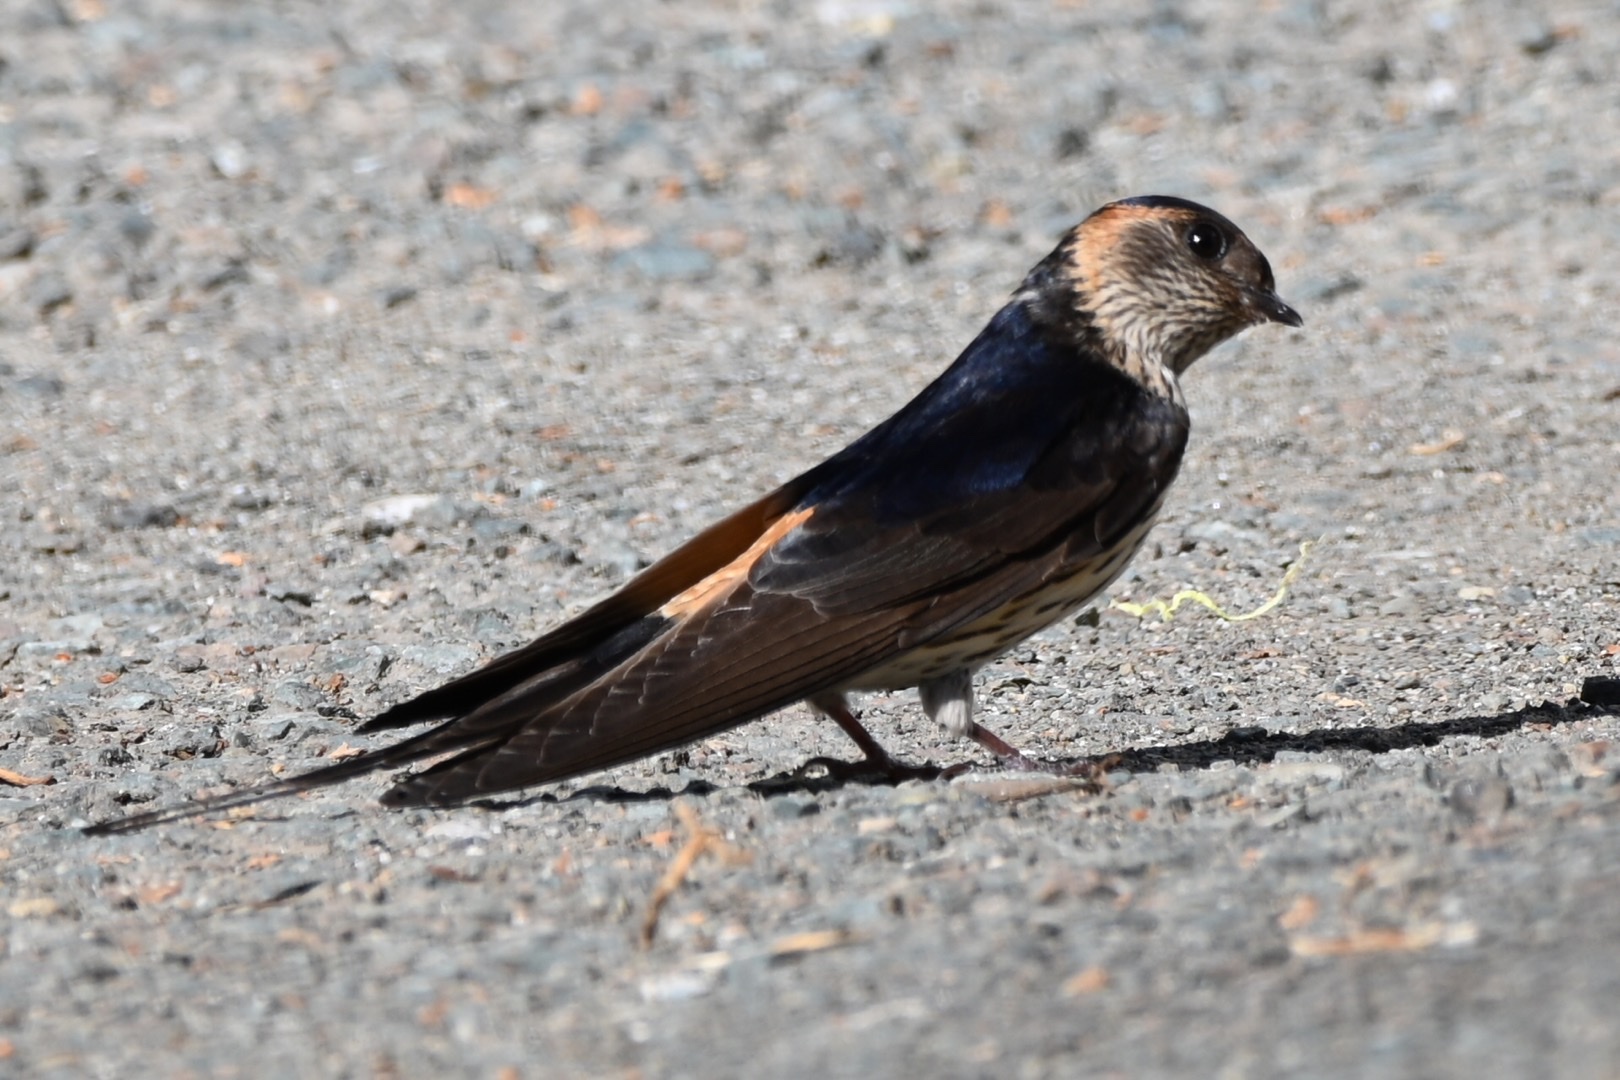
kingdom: Animalia
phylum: Chordata
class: Aves
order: Passeriformes
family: Hirundinidae
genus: Cecropis
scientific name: Cecropis daurica
